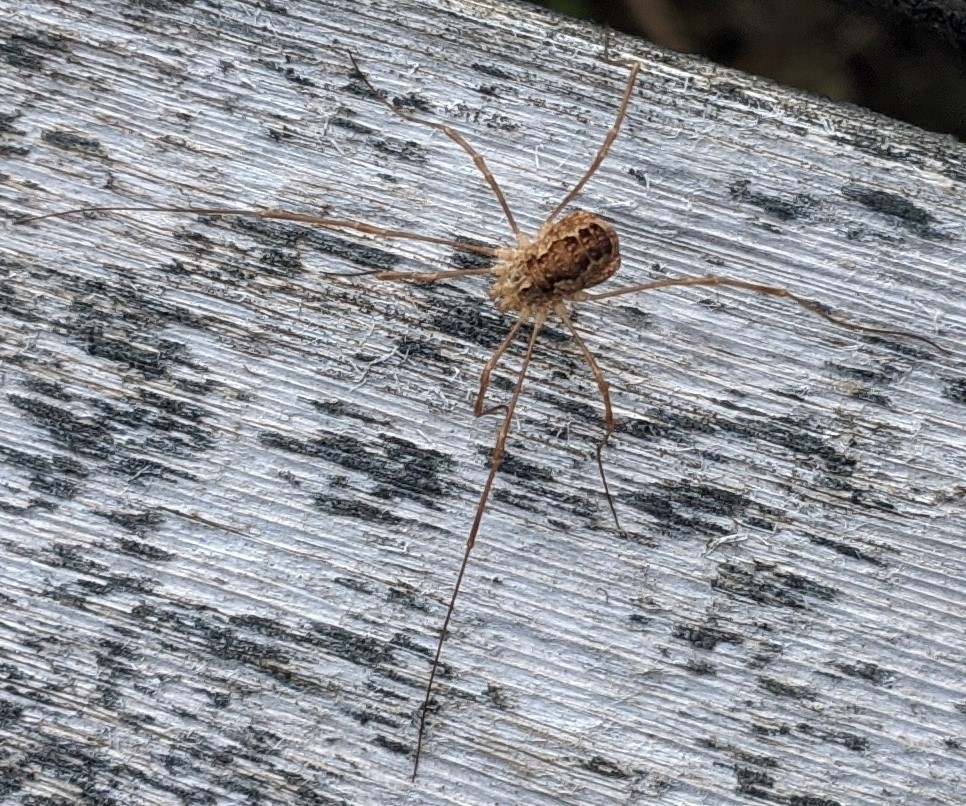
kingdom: Animalia
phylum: Arthropoda
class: Arachnida
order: Opiliones
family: Phalangiidae
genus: Rilaena
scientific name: Rilaena triangularis
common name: Spring harvestman
